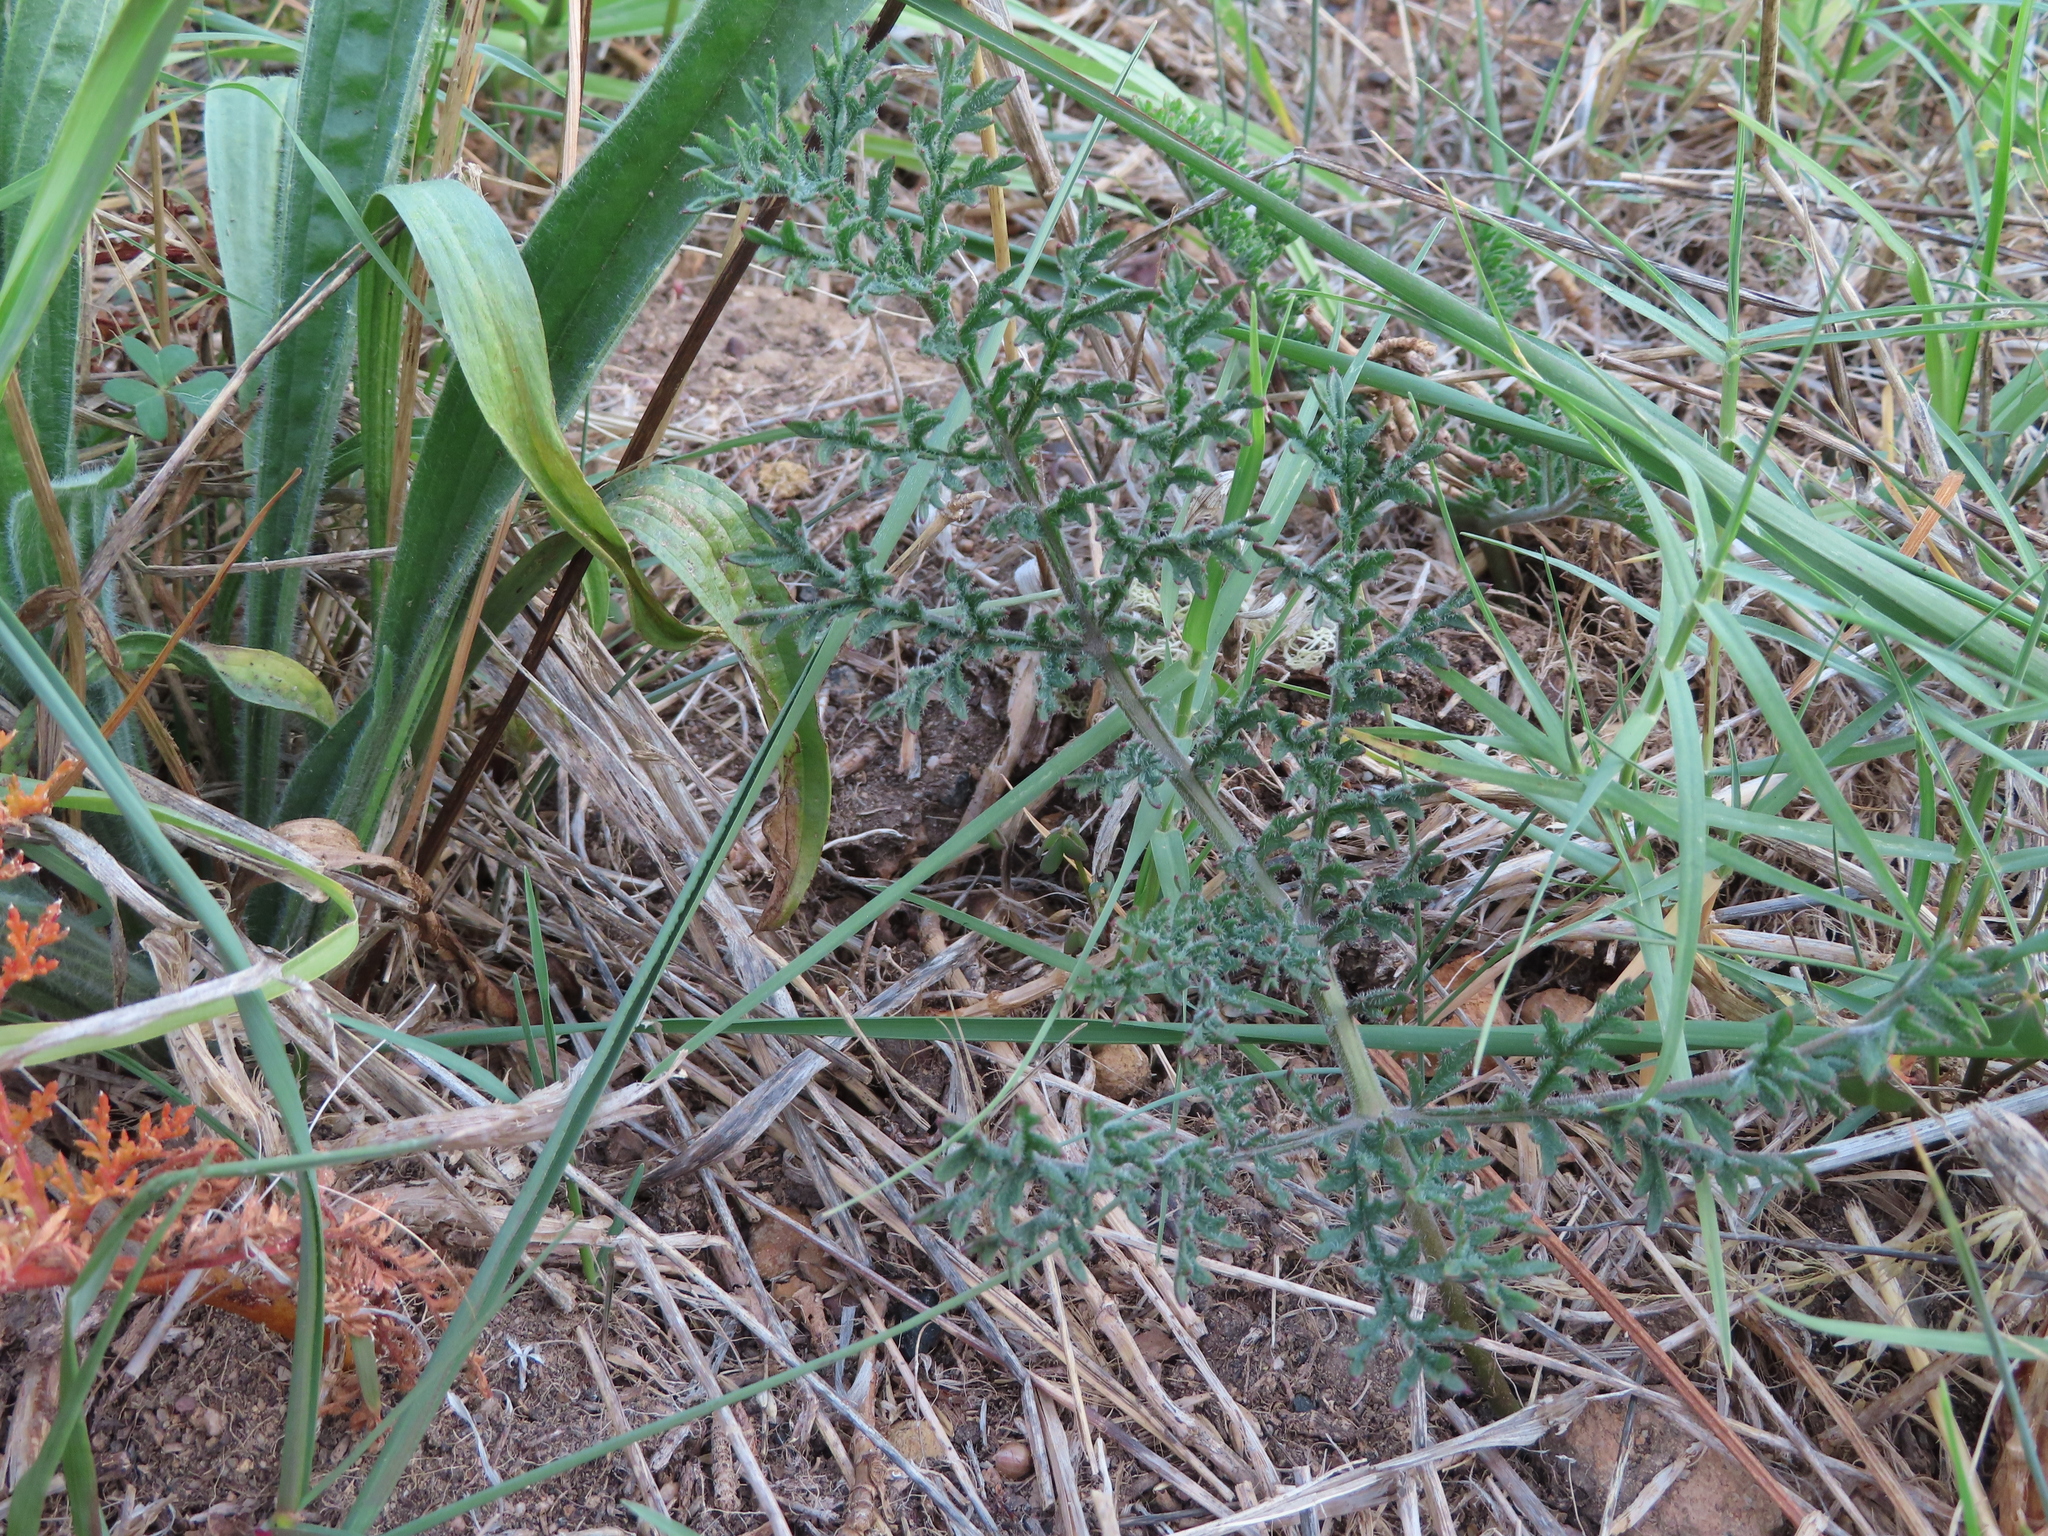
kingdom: Plantae
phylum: Tracheophyta
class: Magnoliopsida
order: Geraniales
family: Geraniaceae
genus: Pelargonium
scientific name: Pelargonium triste
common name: Night-scent pelargonium
